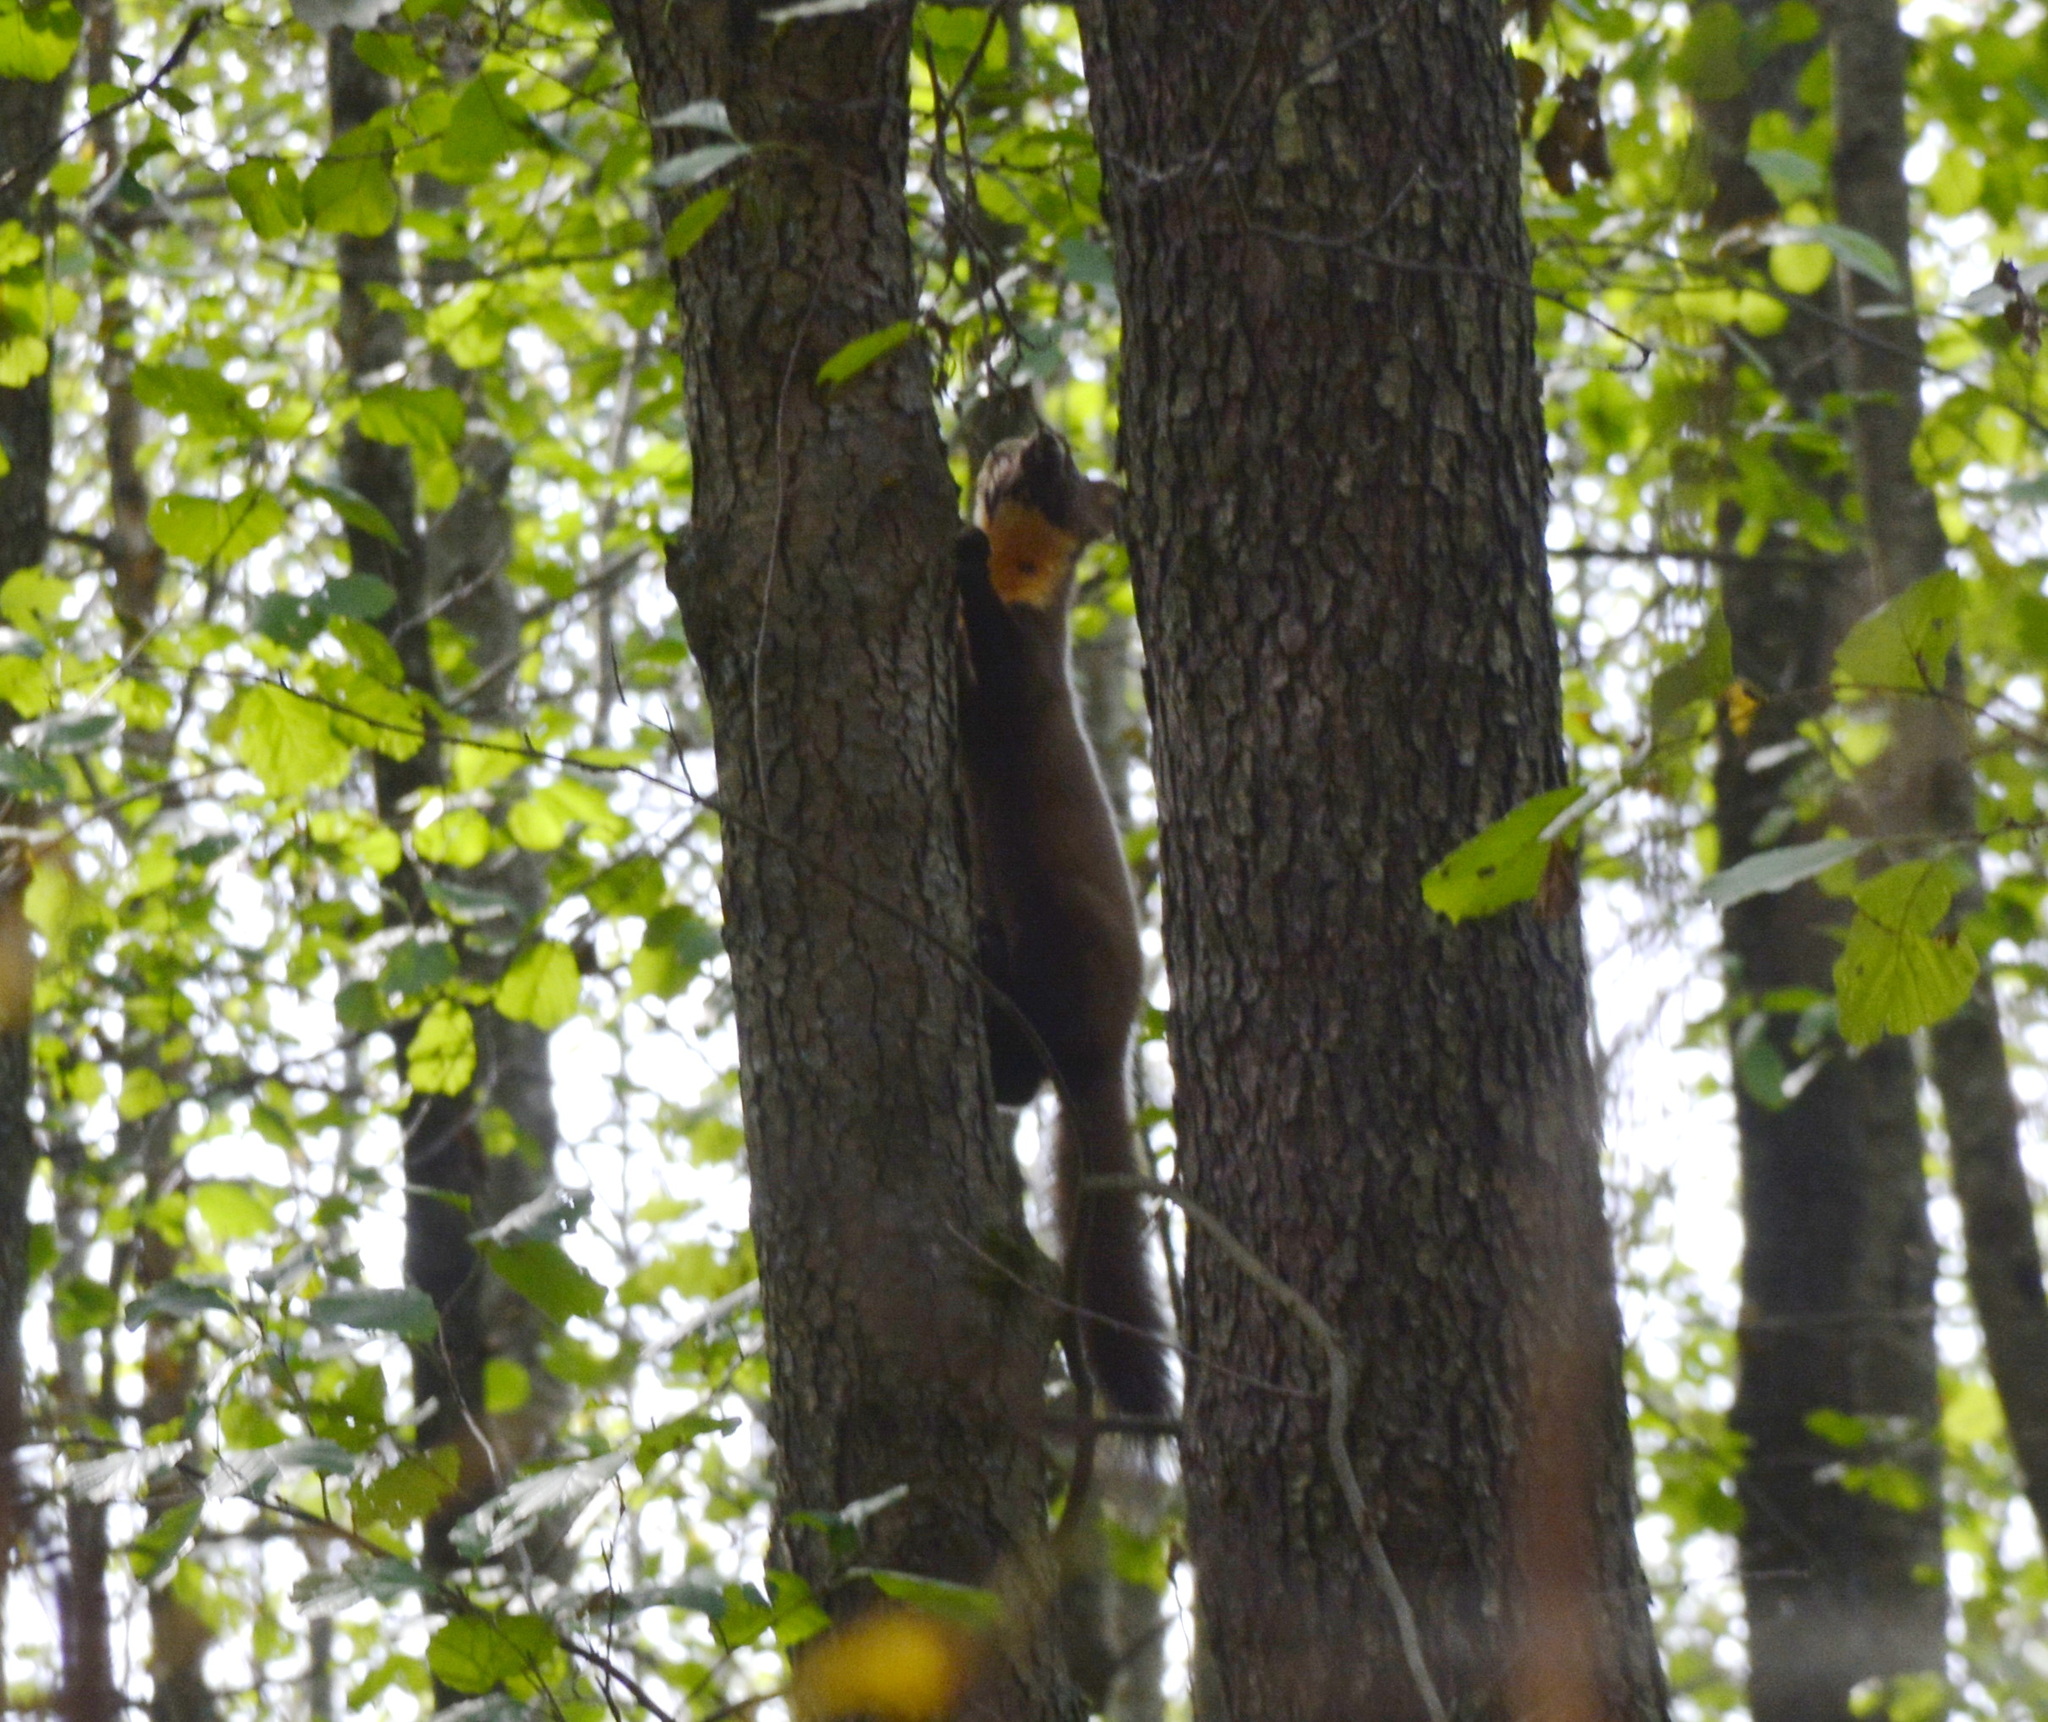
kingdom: Animalia
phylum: Chordata
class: Mammalia
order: Carnivora
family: Mustelidae
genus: Martes
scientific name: Martes martes
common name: European pine marten
